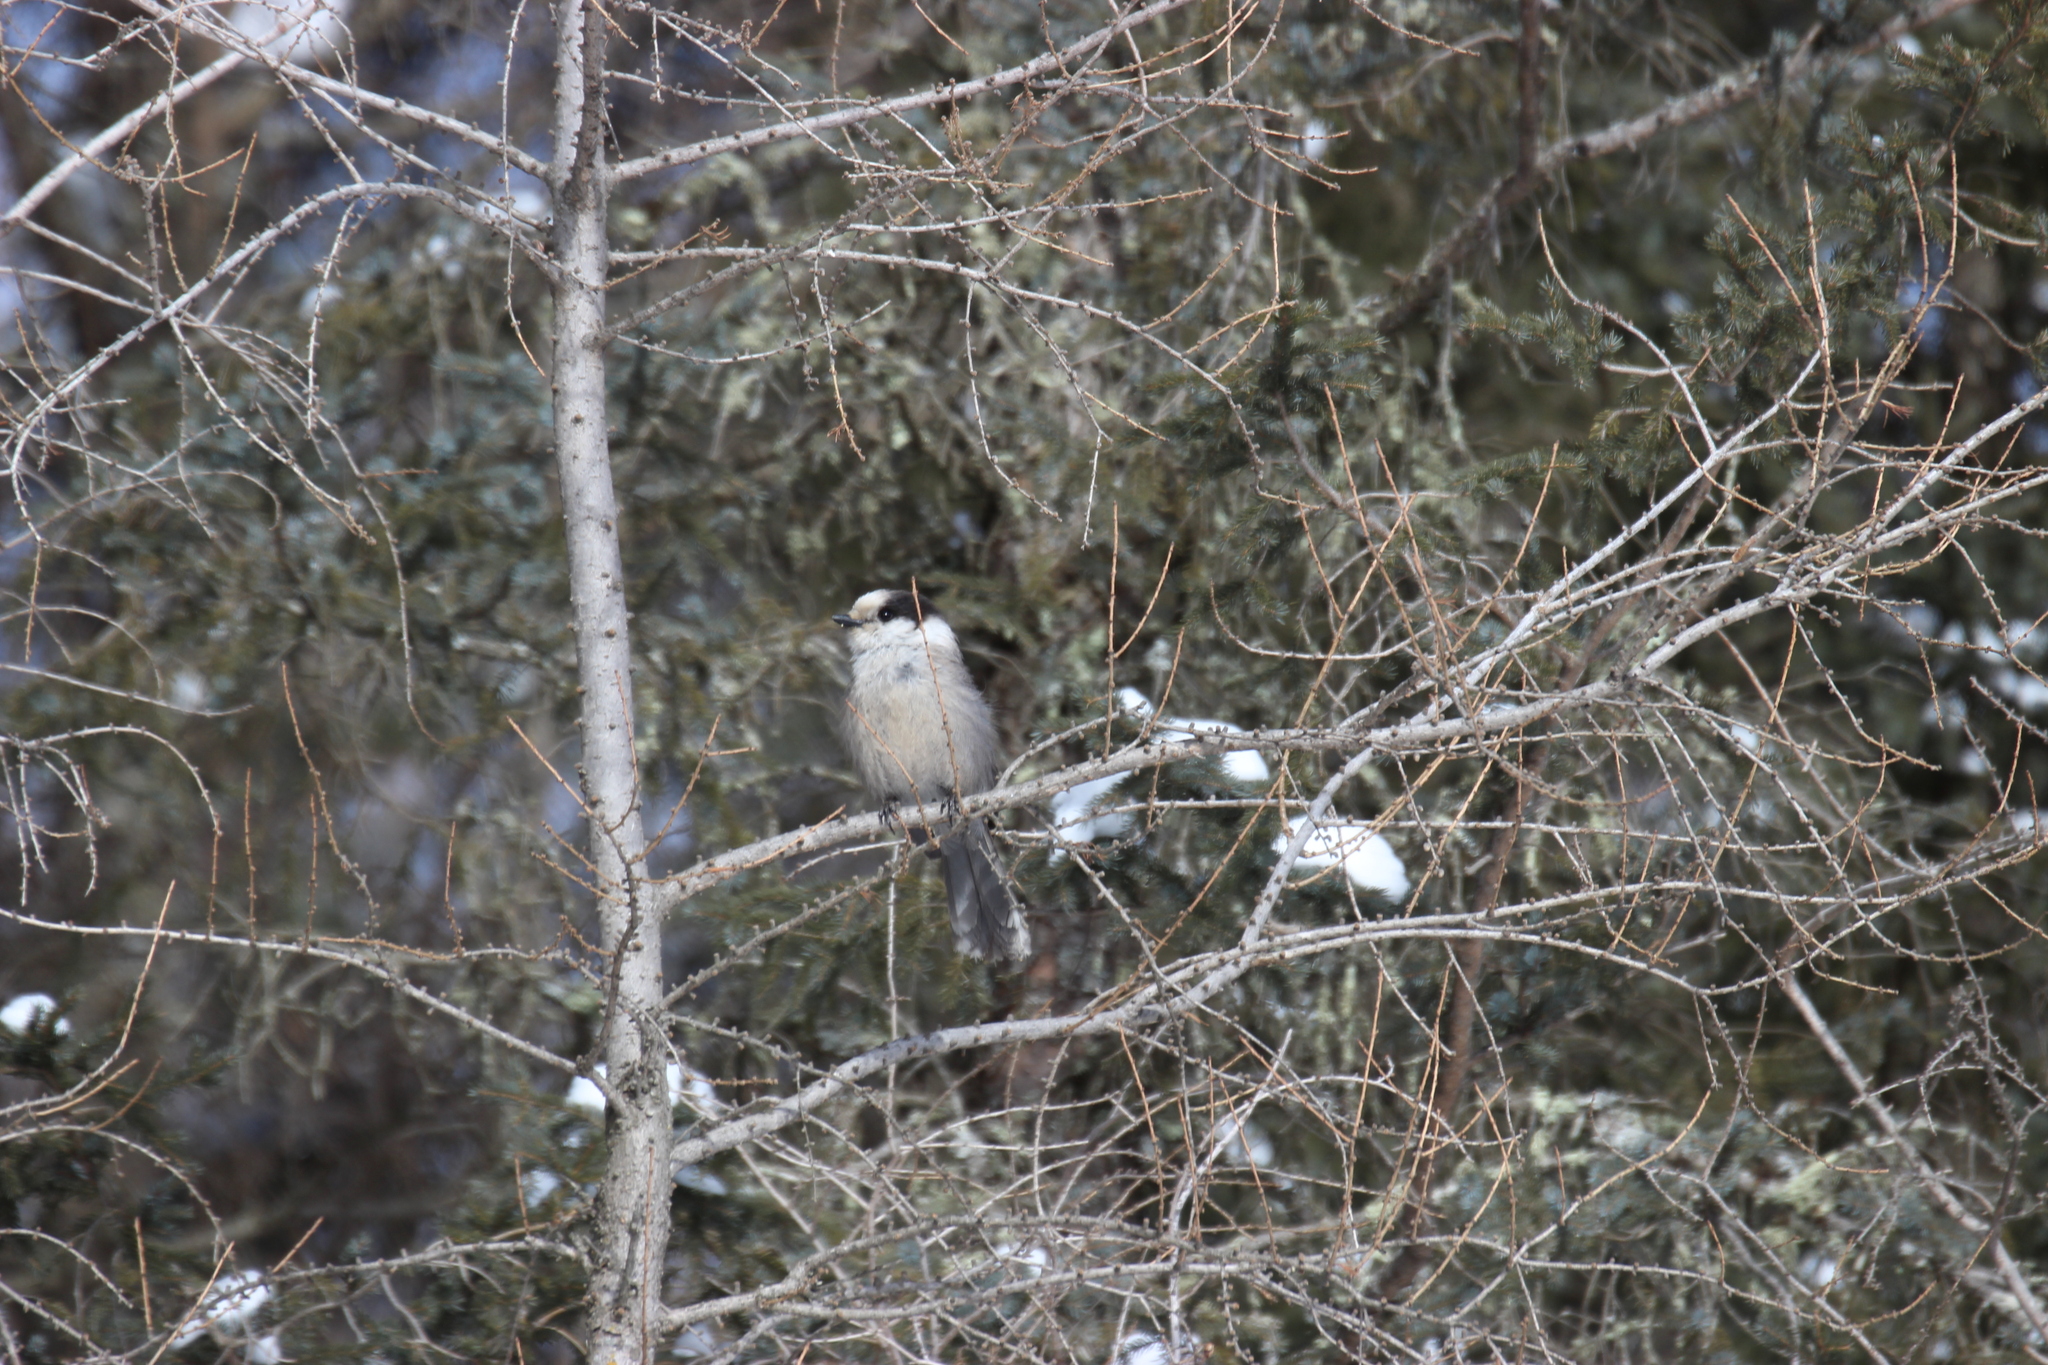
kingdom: Animalia
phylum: Chordata
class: Aves
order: Passeriformes
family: Corvidae
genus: Perisoreus
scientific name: Perisoreus canadensis
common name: Gray jay
